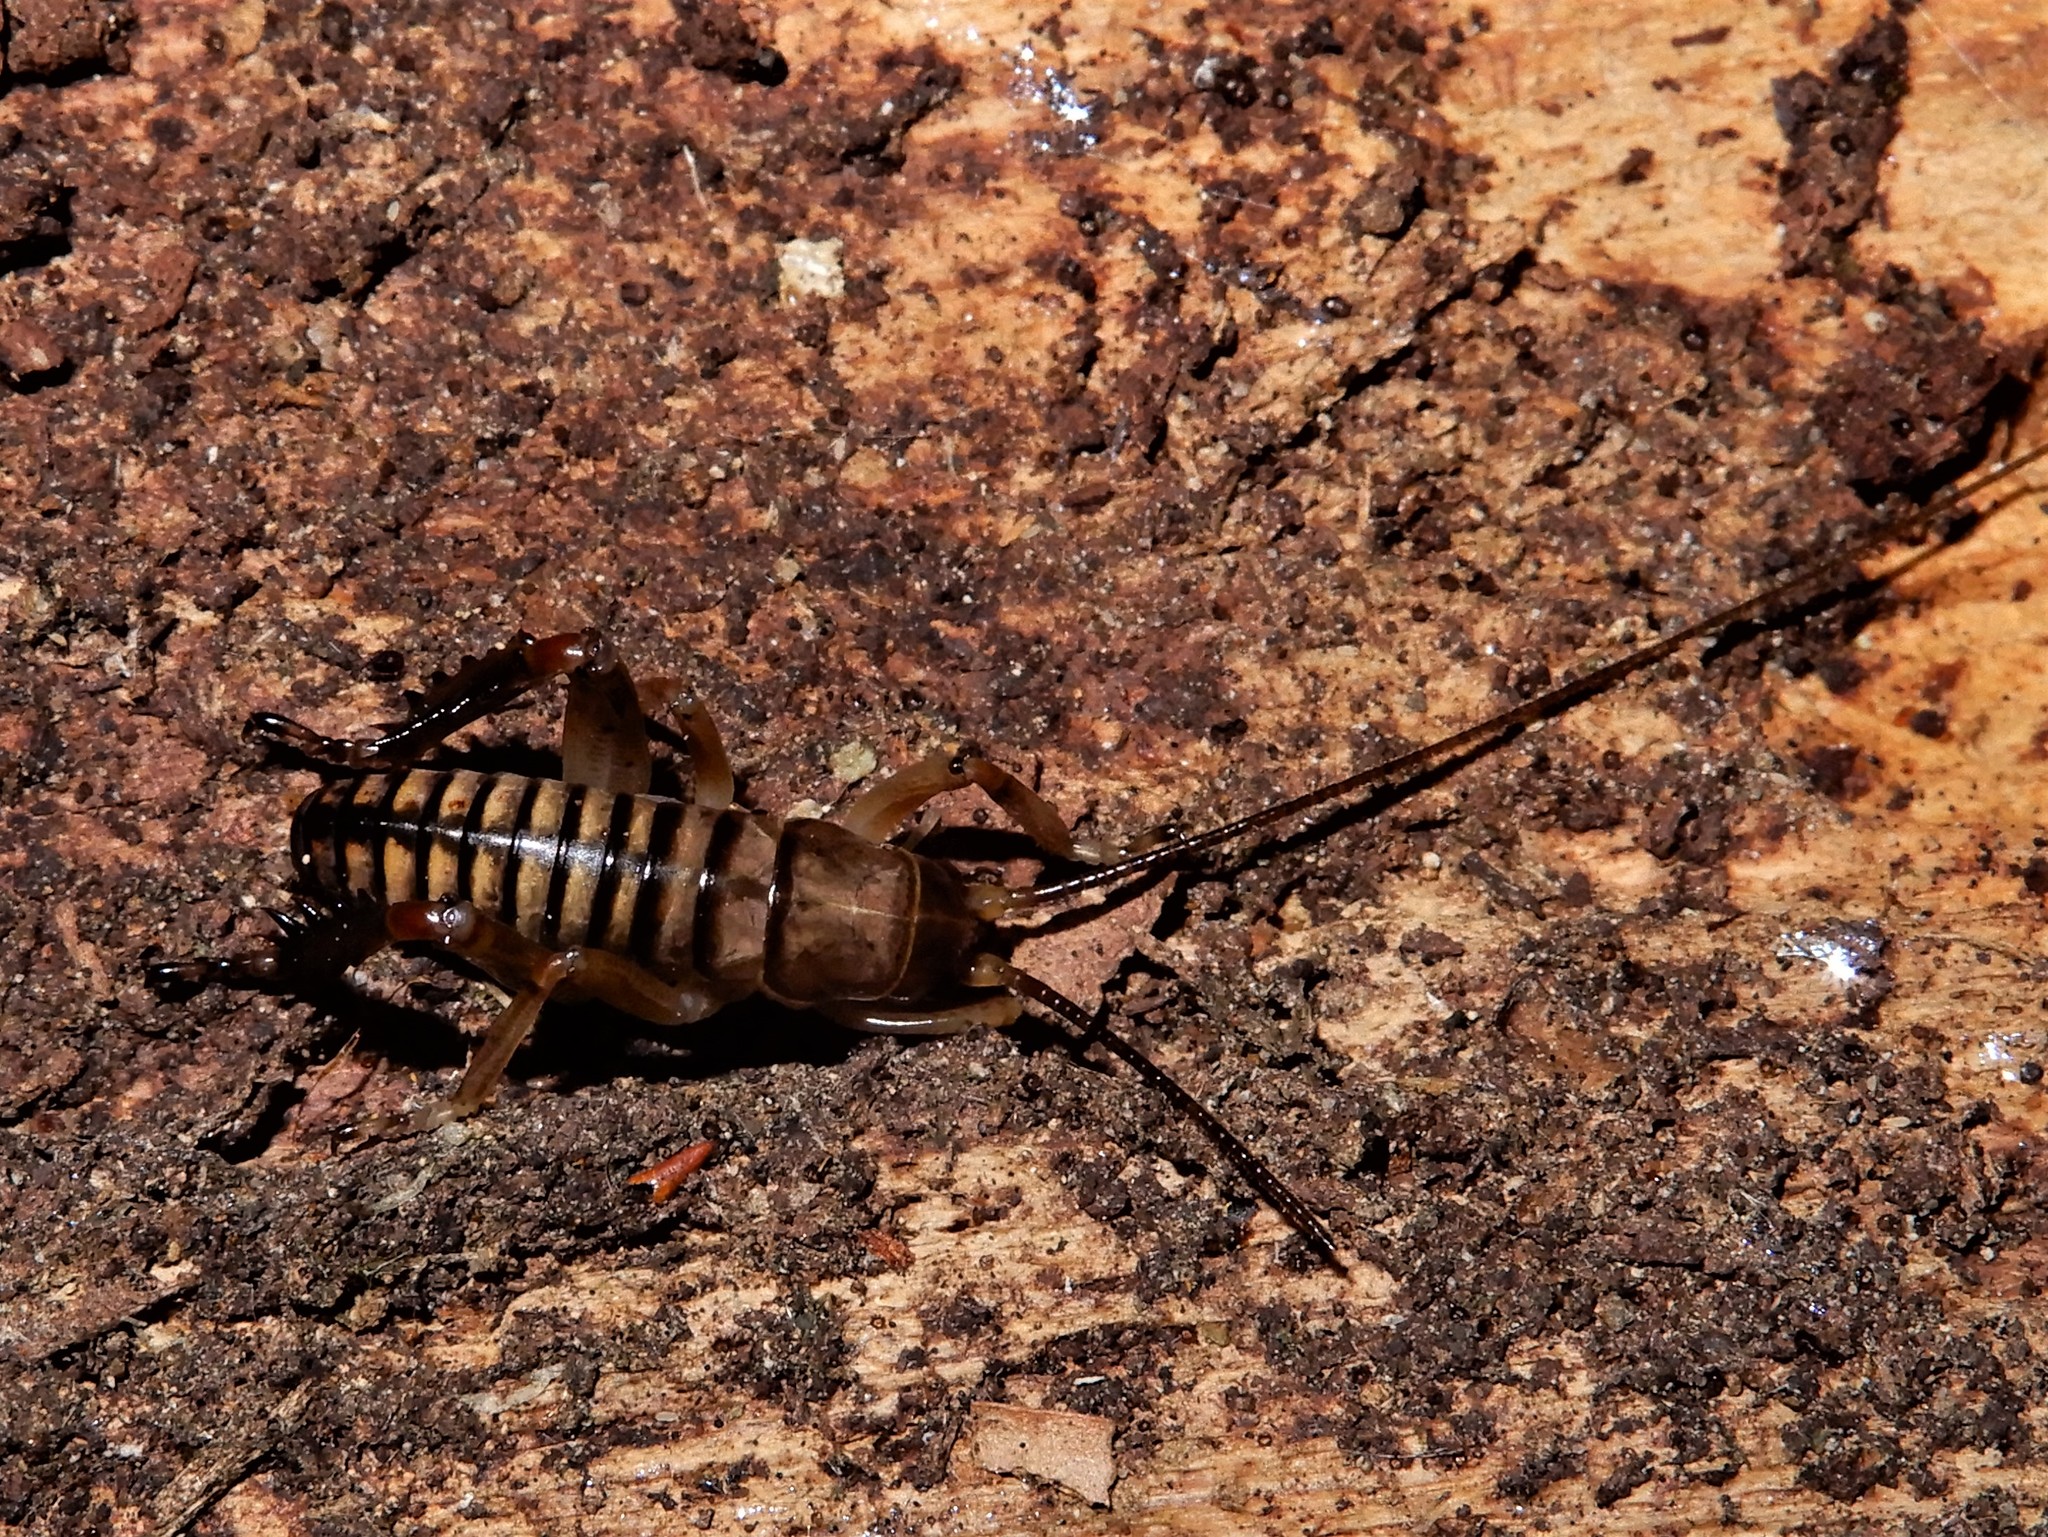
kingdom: Animalia
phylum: Arthropoda
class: Insecta
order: Orthoptera
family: Anostostomatidae
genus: Hemideina
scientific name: Hemideina crassidens
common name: Wellington tree weta
